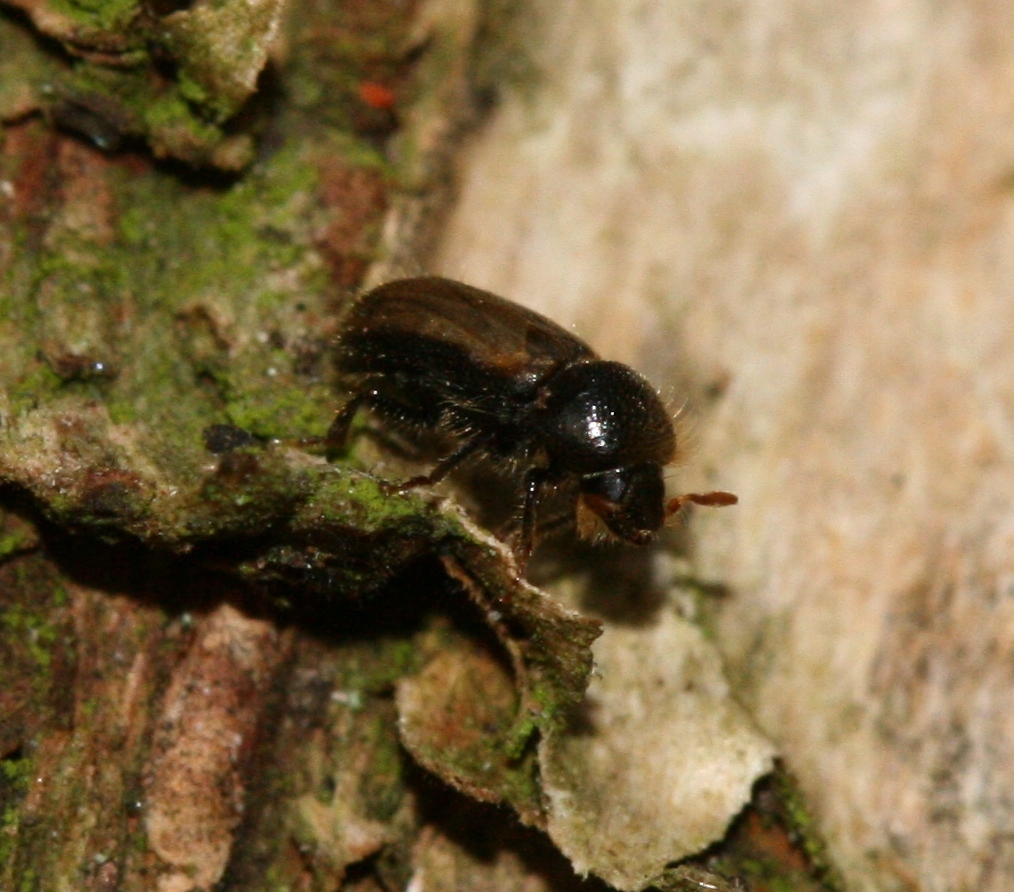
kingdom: Animalia
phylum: Arthropoda
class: Insecta
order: Coleoptera
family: Curculionidae
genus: Trypodendron
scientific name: Trypodendron domesticum
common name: European hardwood ambrosia beetle
